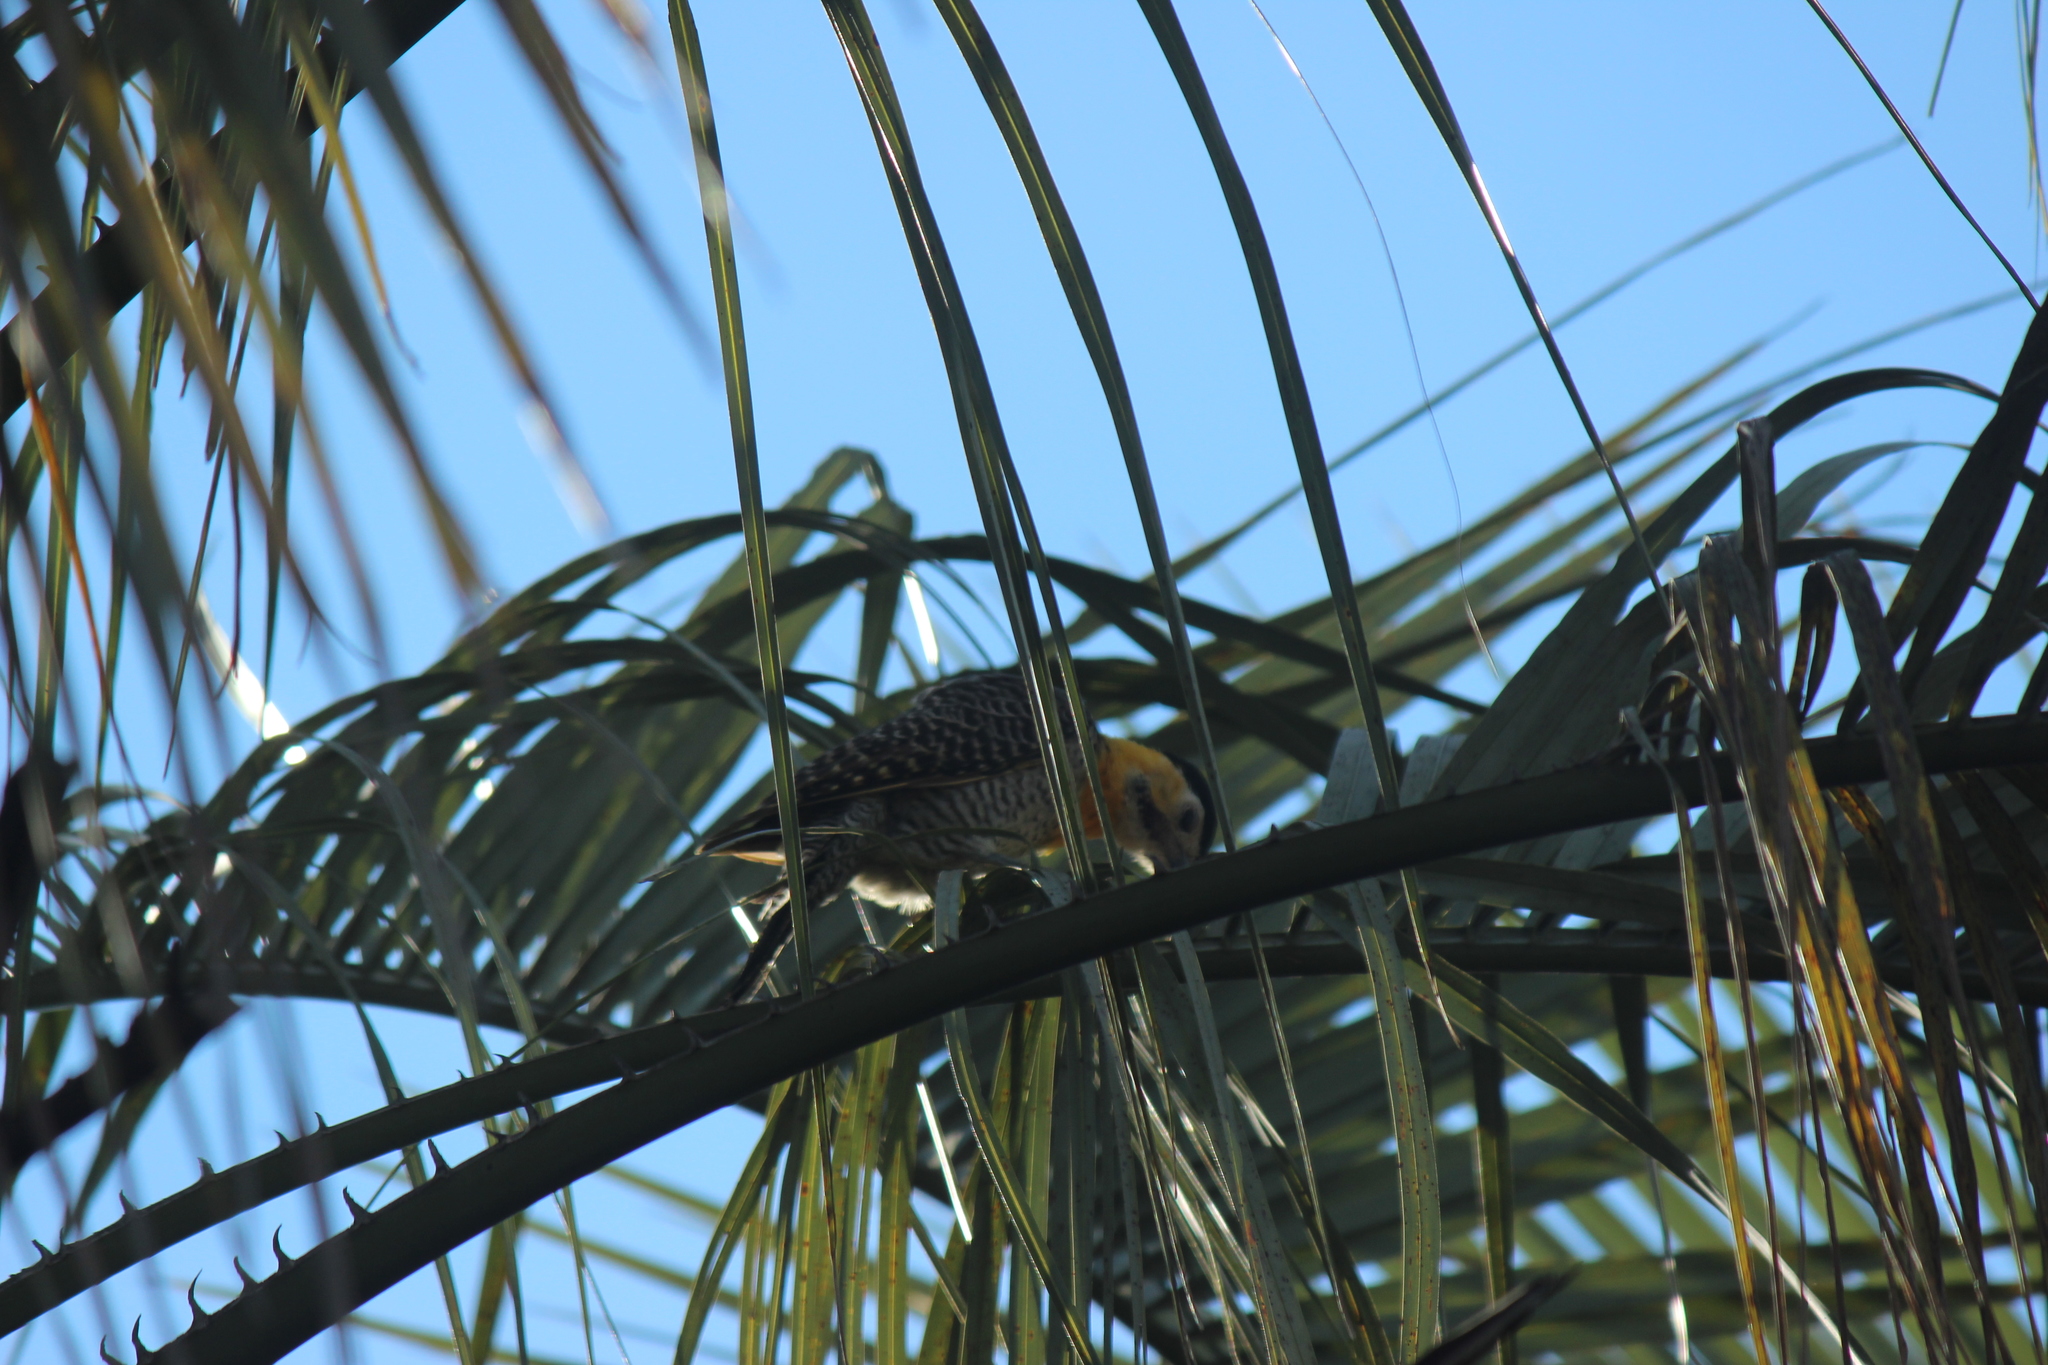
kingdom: Animalia
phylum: Chordata
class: Aves
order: Piciformes
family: Picidae
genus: Colaptes
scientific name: Colaptes campestris
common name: Campo flicker
